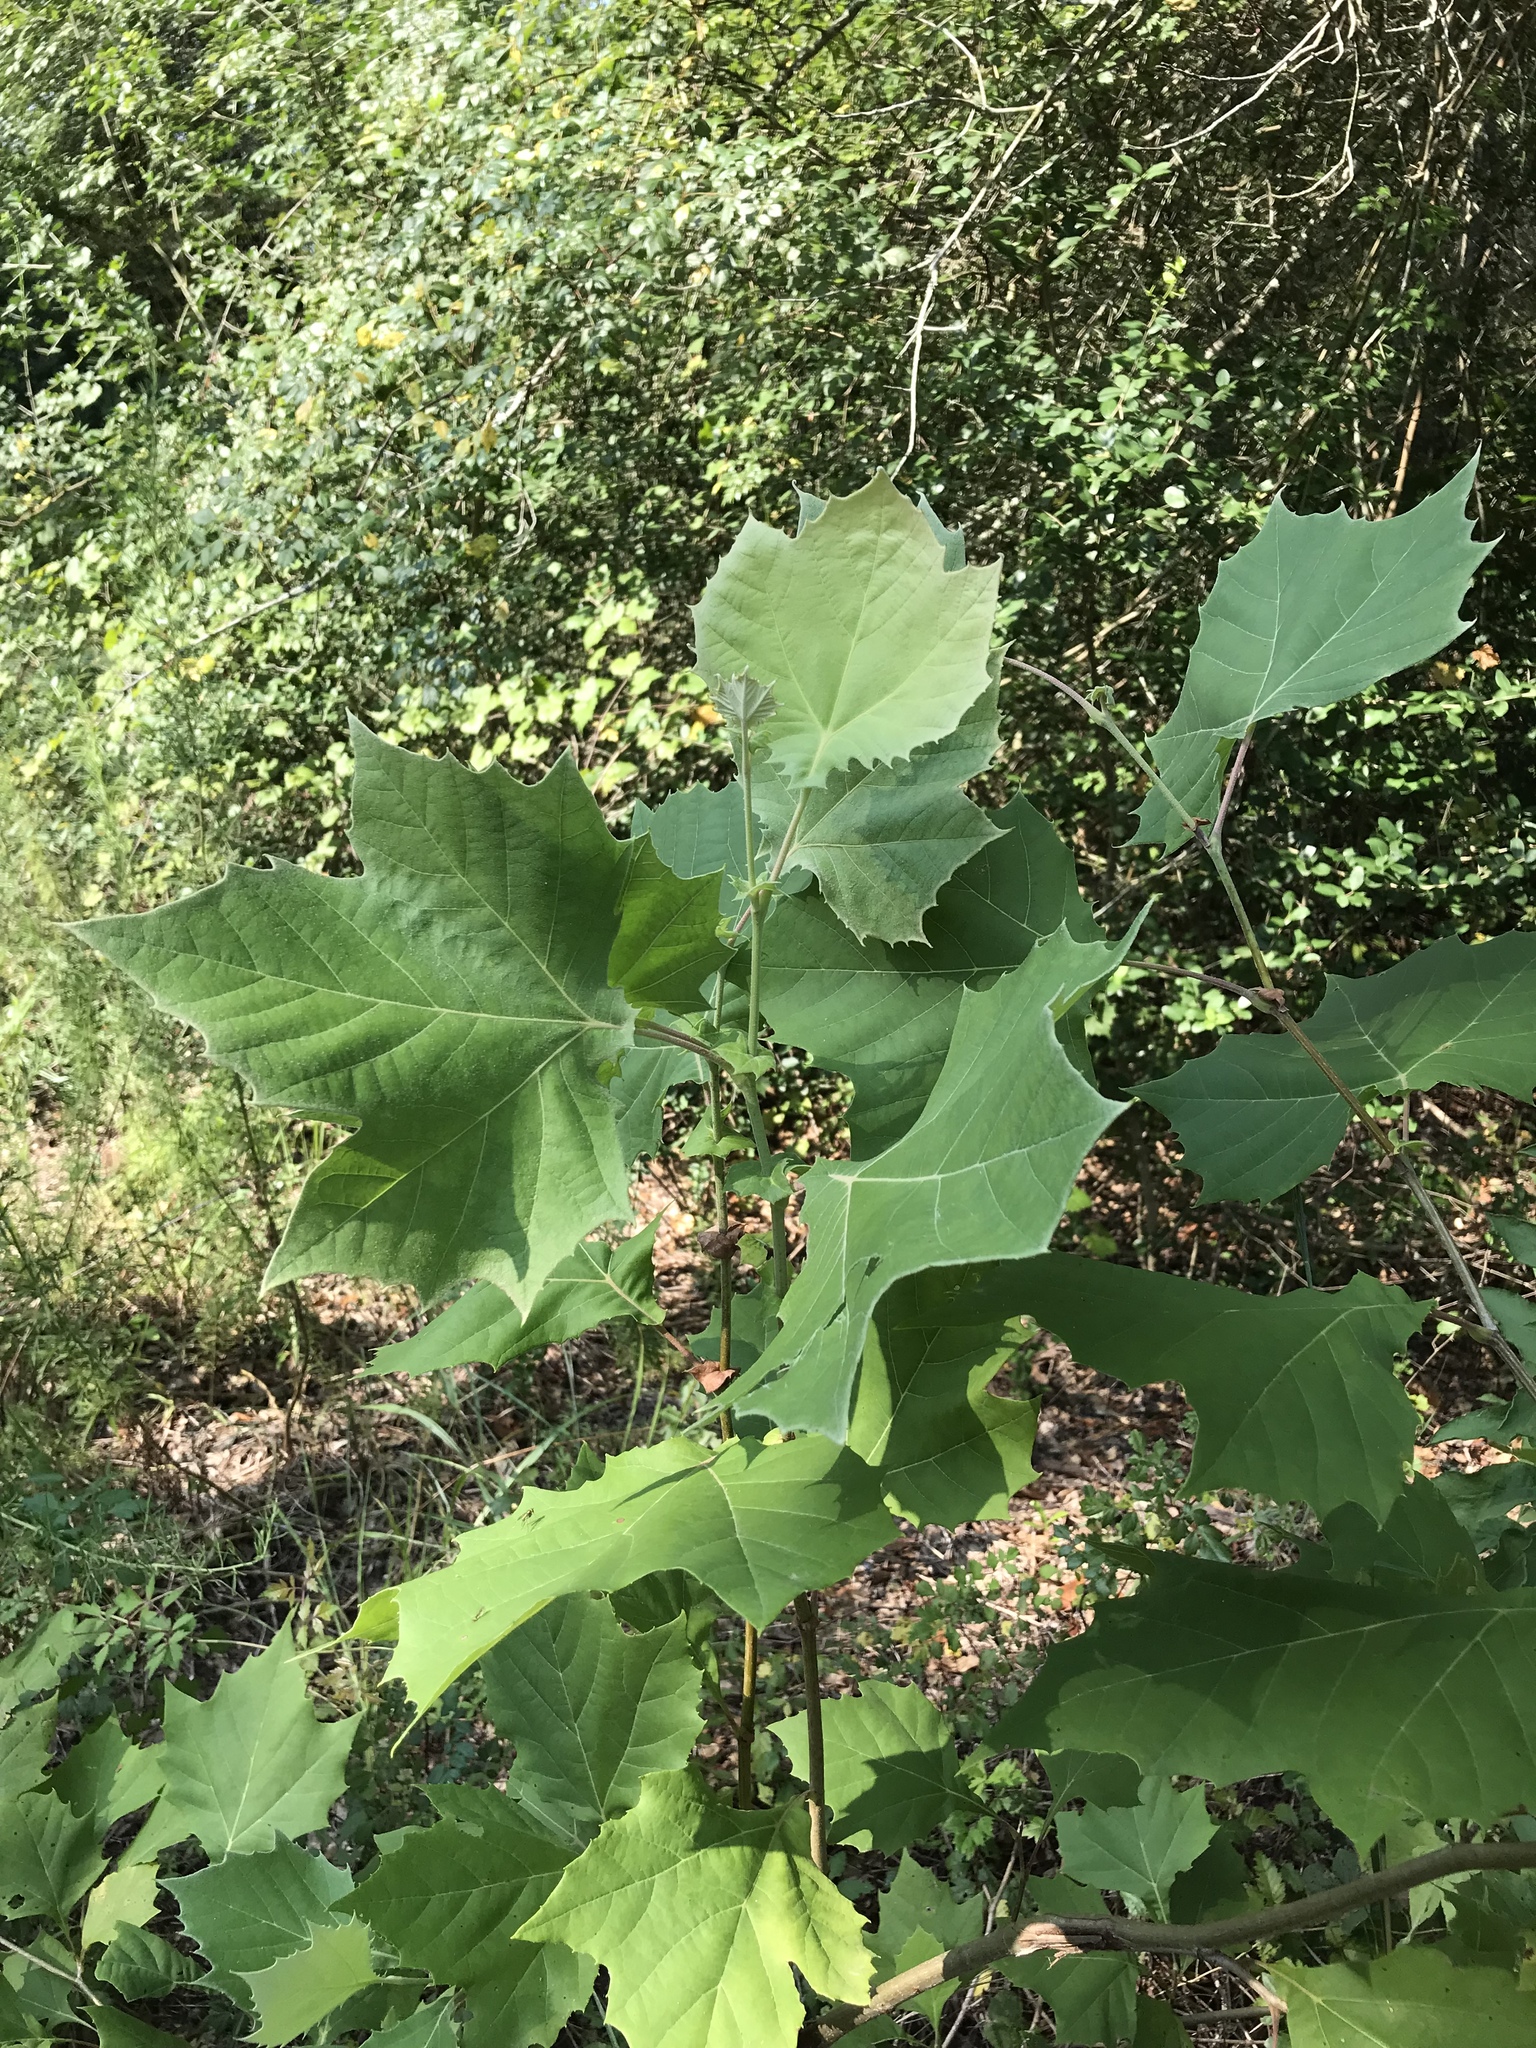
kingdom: Plantae
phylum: Tracheophyta
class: Magnoliopsida
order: Proteales
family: Platanaceae
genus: Platanus
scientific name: Platanus occidentalis
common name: American sycamore
